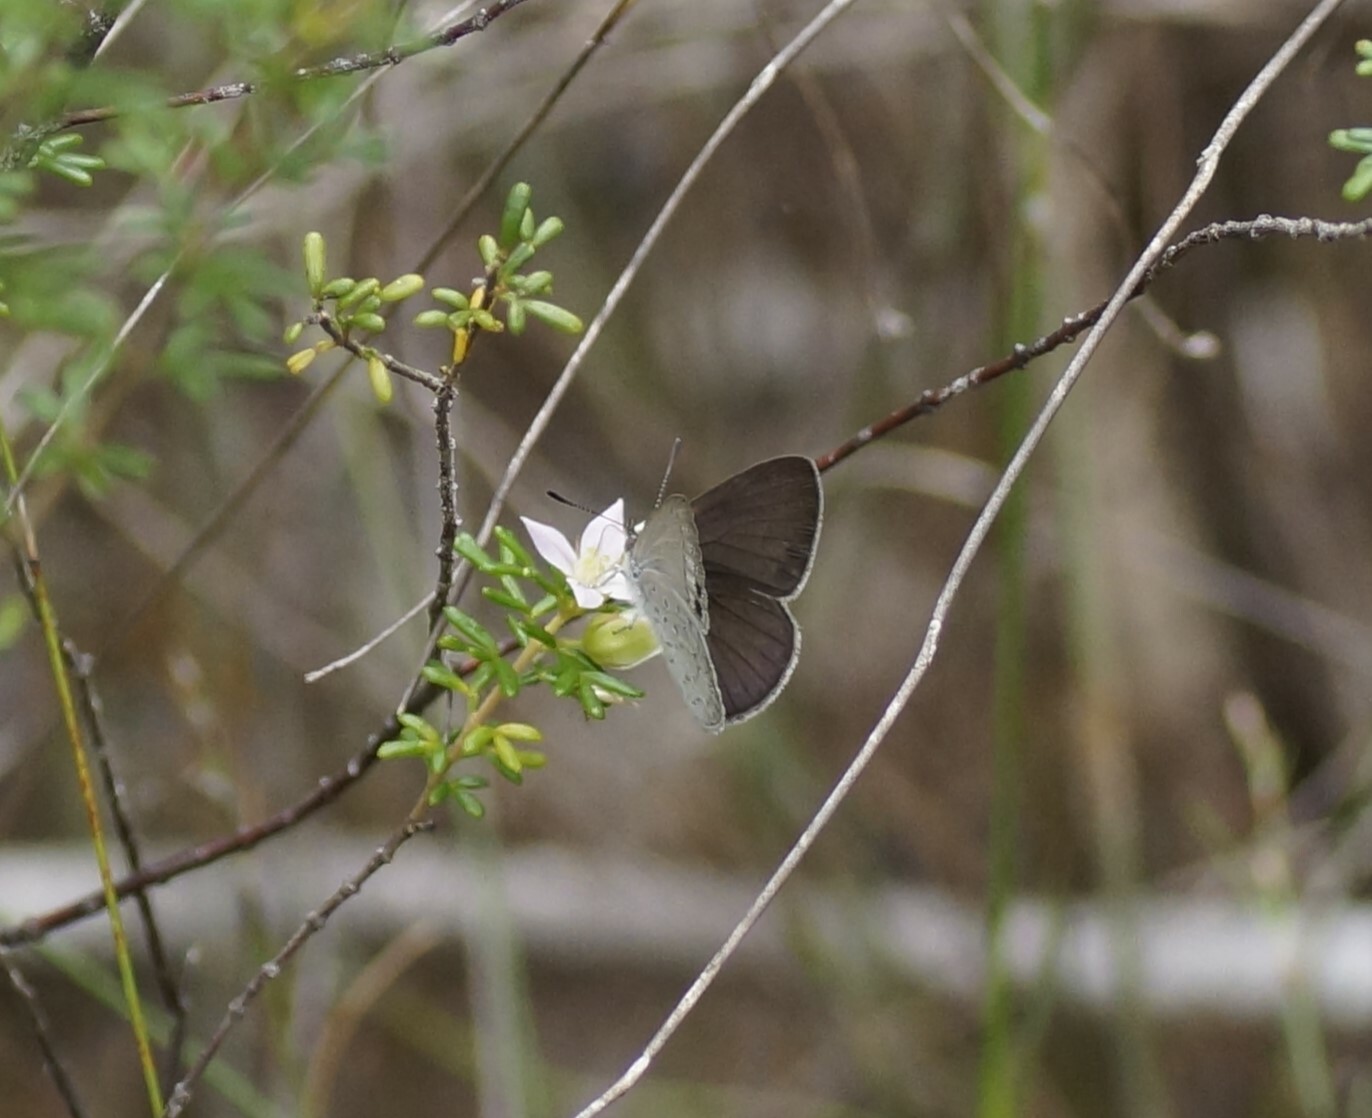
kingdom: Animalia
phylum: Arthropoda
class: Insecta
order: Lepidoptera
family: Lycaenidae
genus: Candalides
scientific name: Candalides
